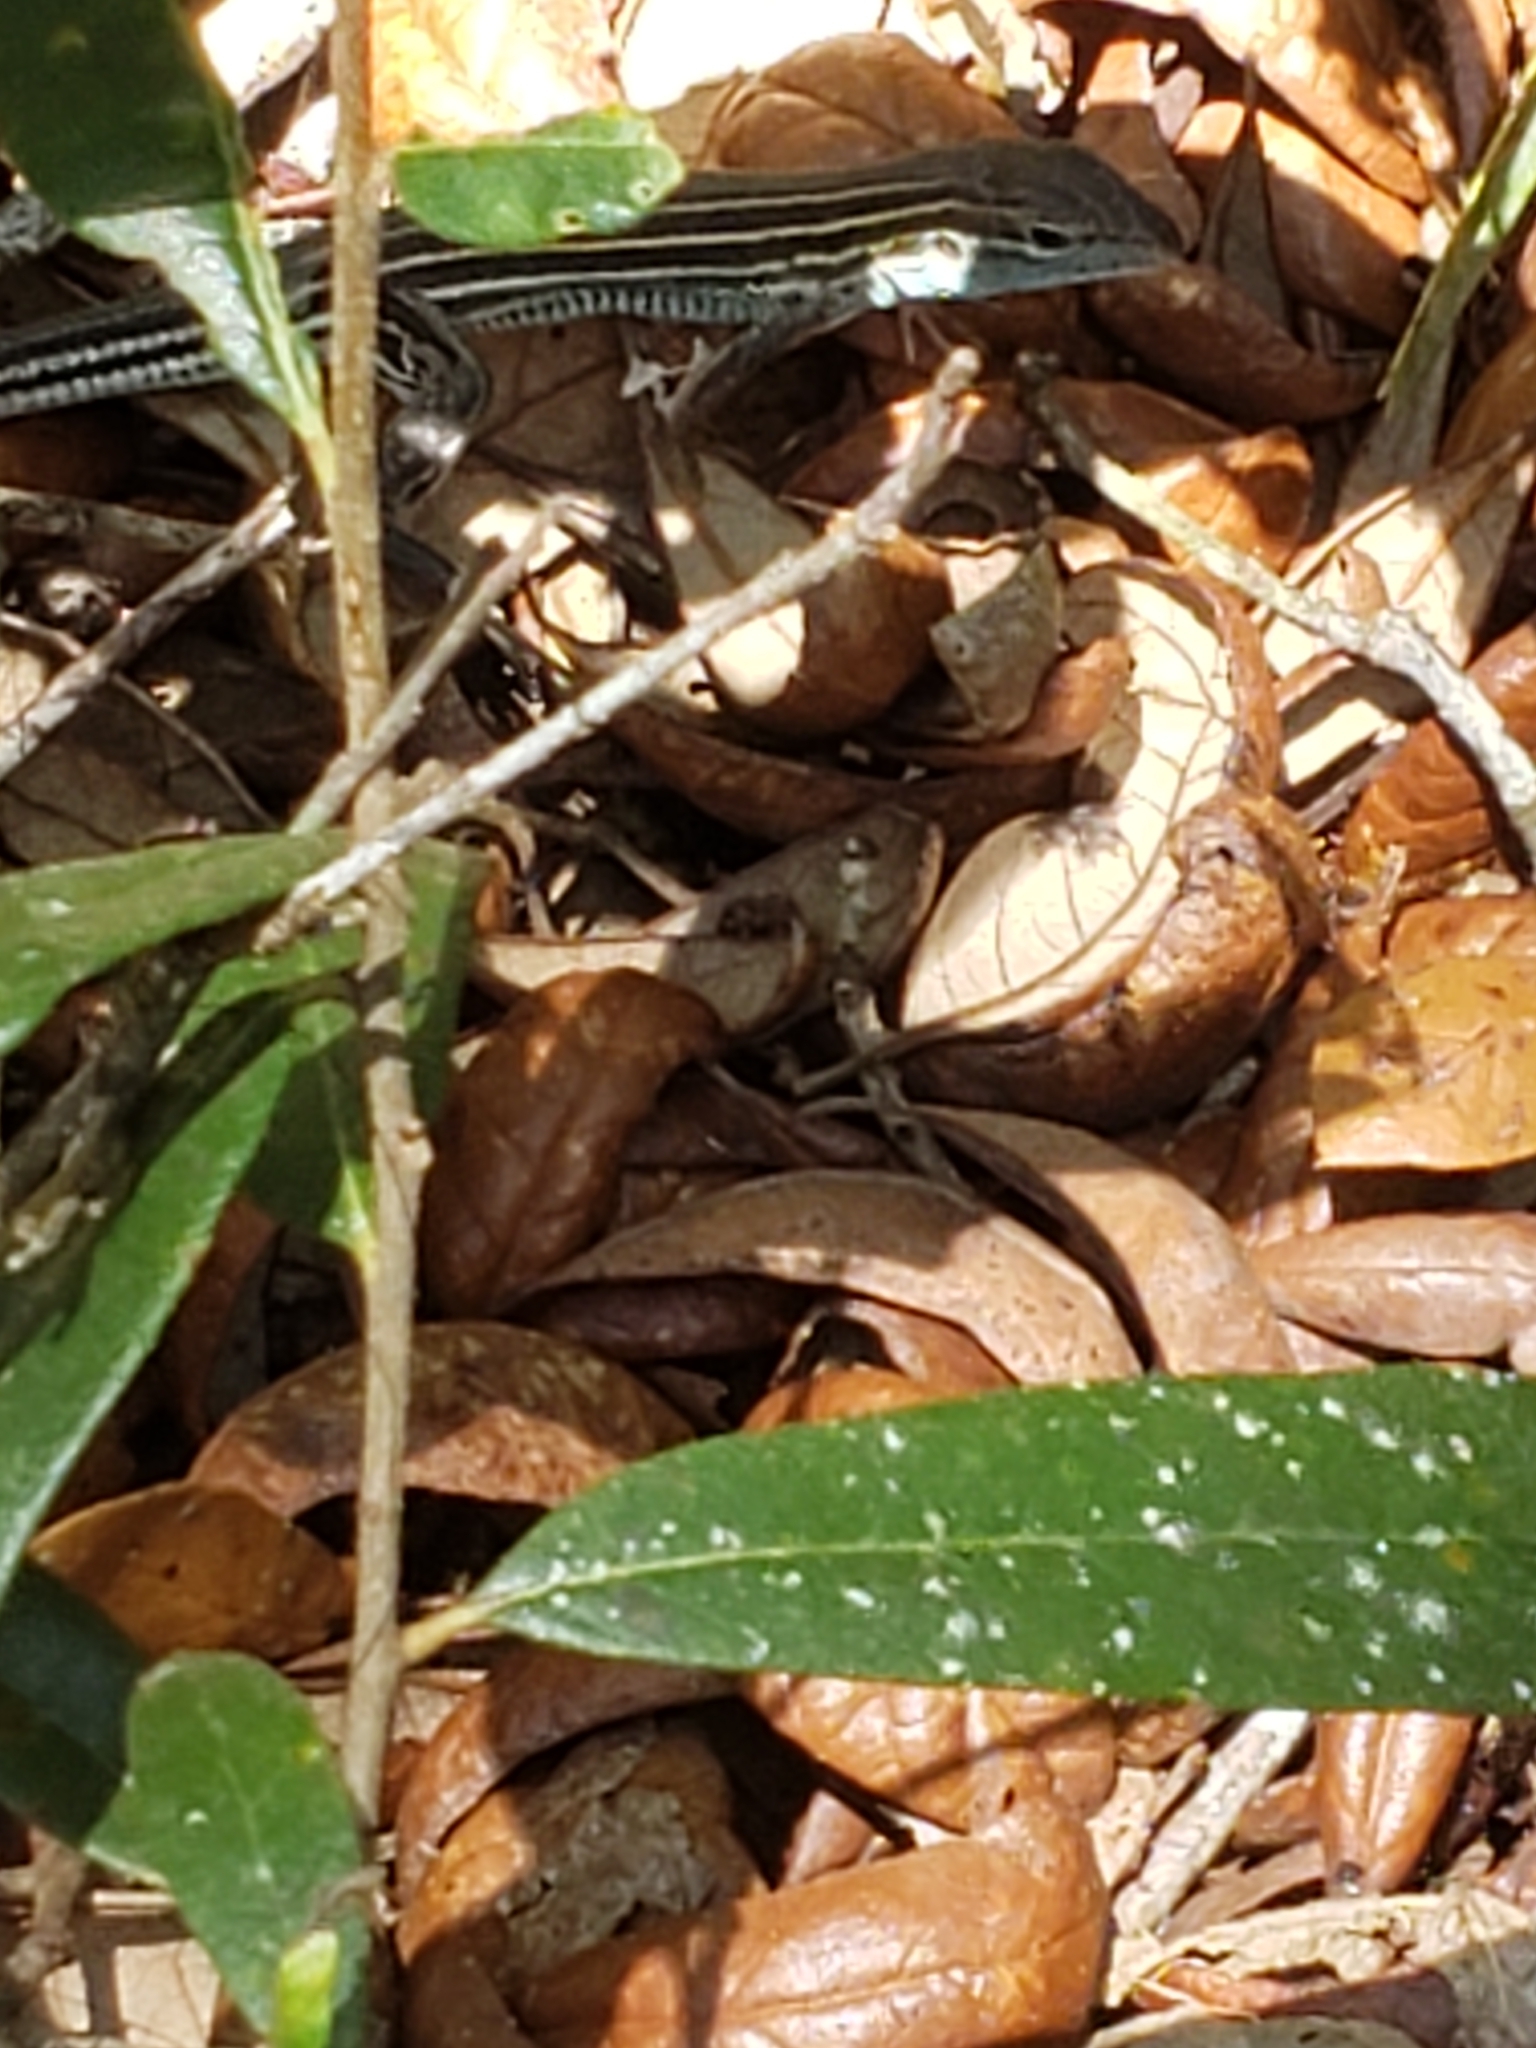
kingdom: Animalia
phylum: Chordata
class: Squamata
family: Teiidae
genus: Aspidoscelis
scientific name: Aspidoscelis sexlineatus
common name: Six-lined racerunner
